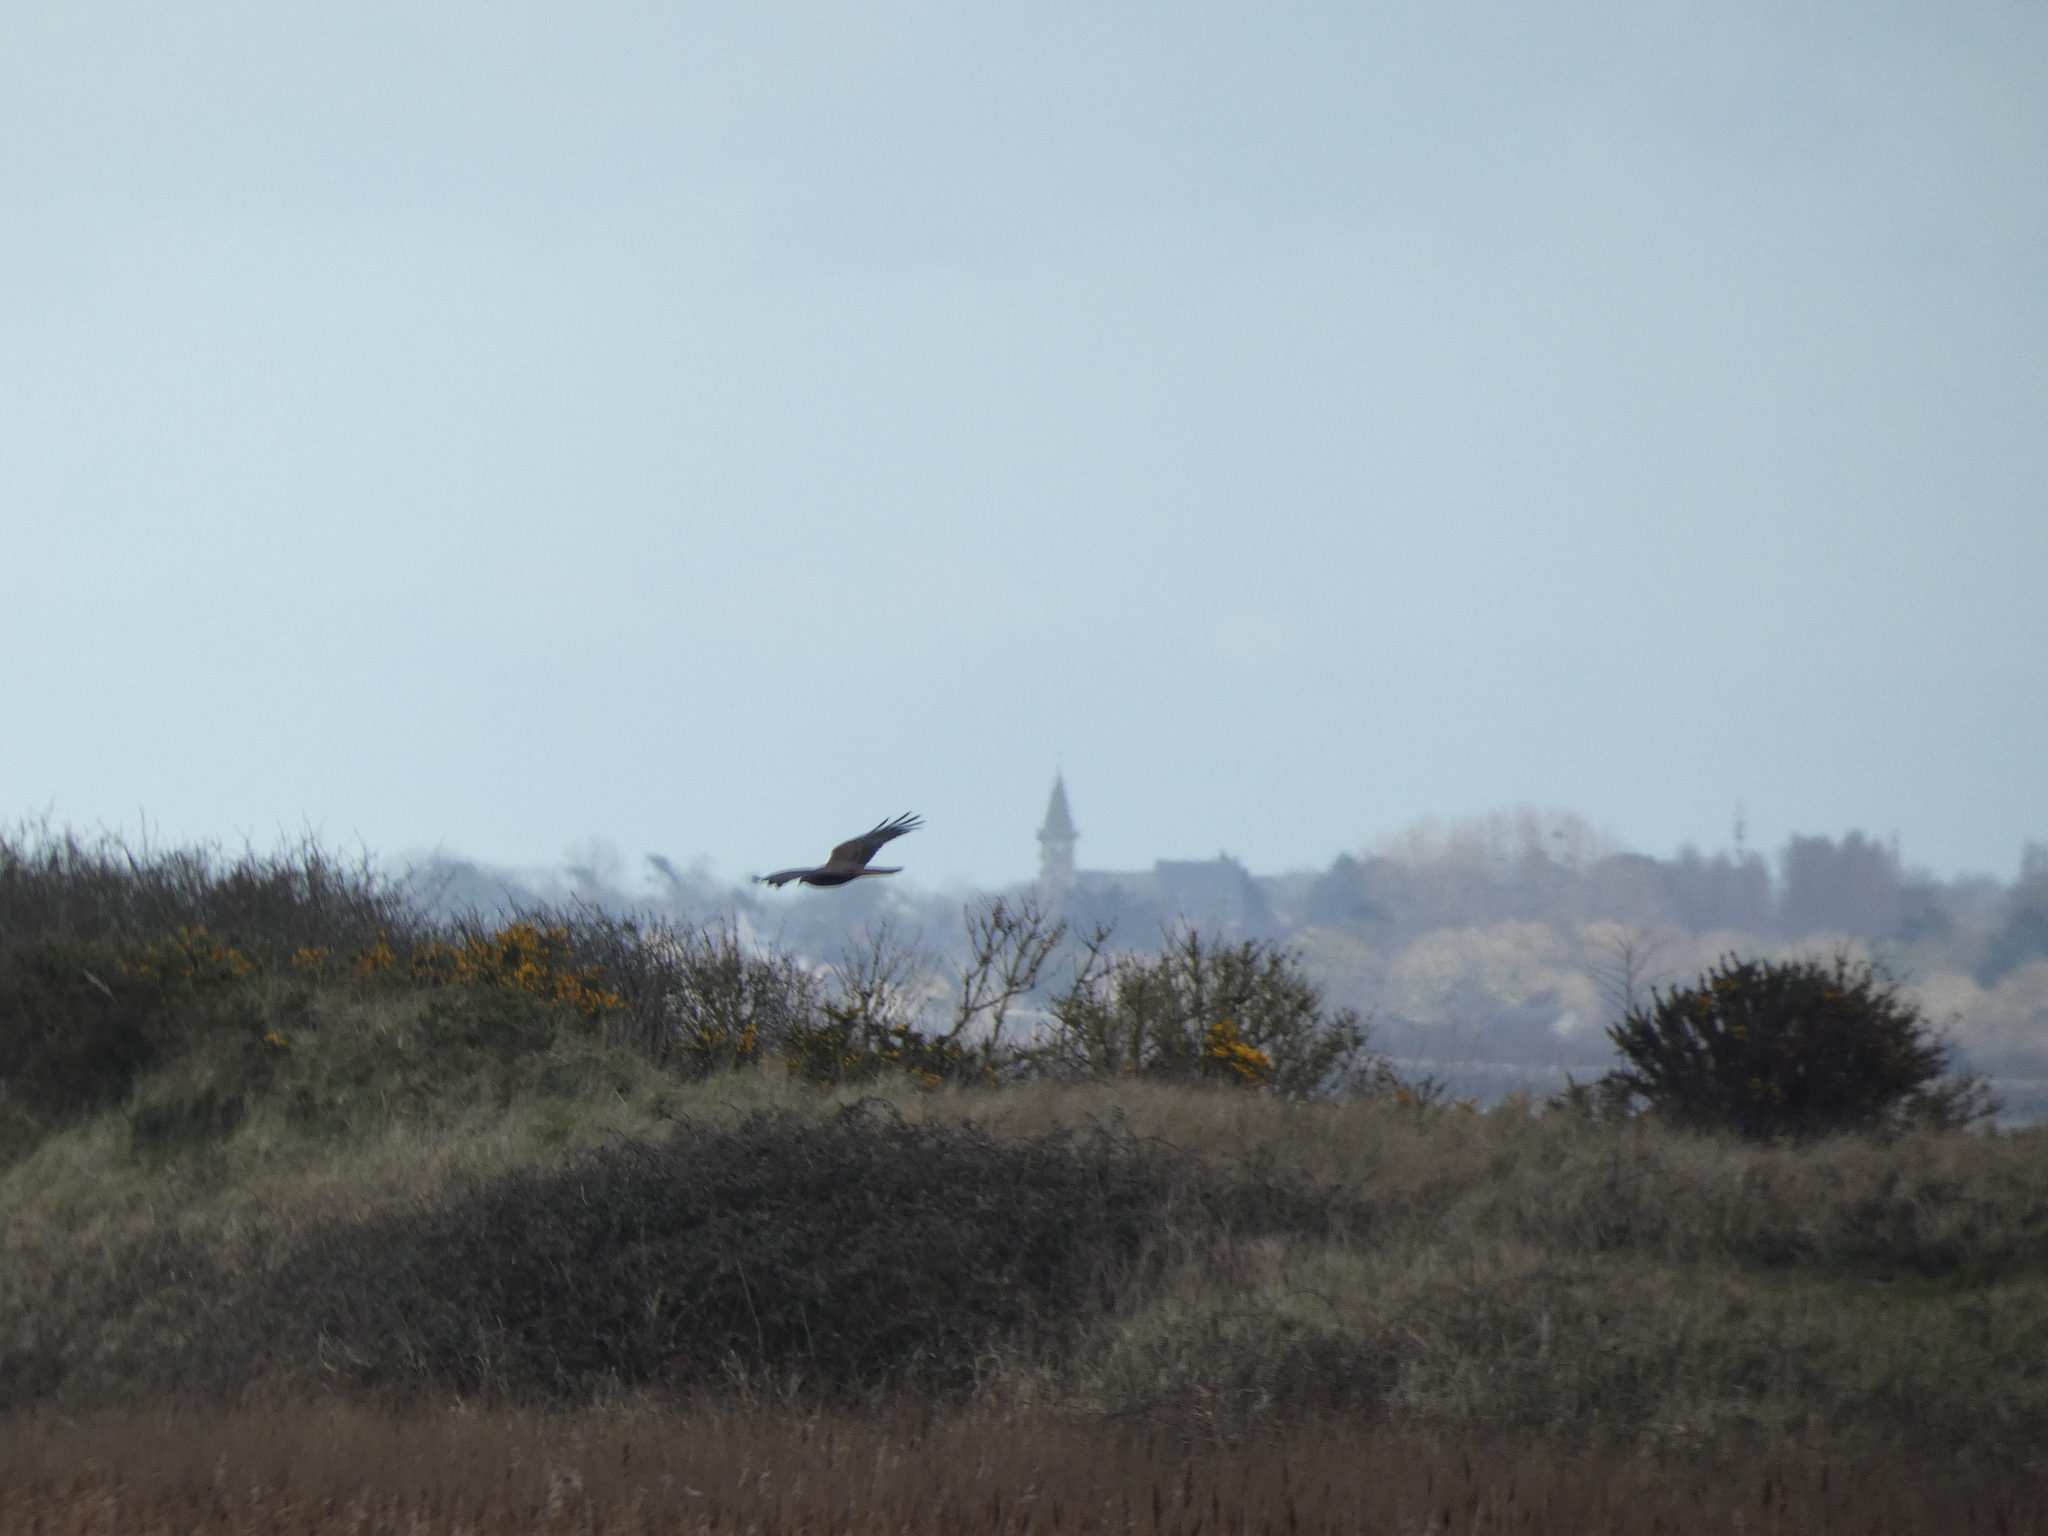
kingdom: Animalia
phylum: Chordata
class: Aves
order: Accipitriformes
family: Accipitridae
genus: Circus
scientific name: Circus aeruginosus
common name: Western marsh harrier
